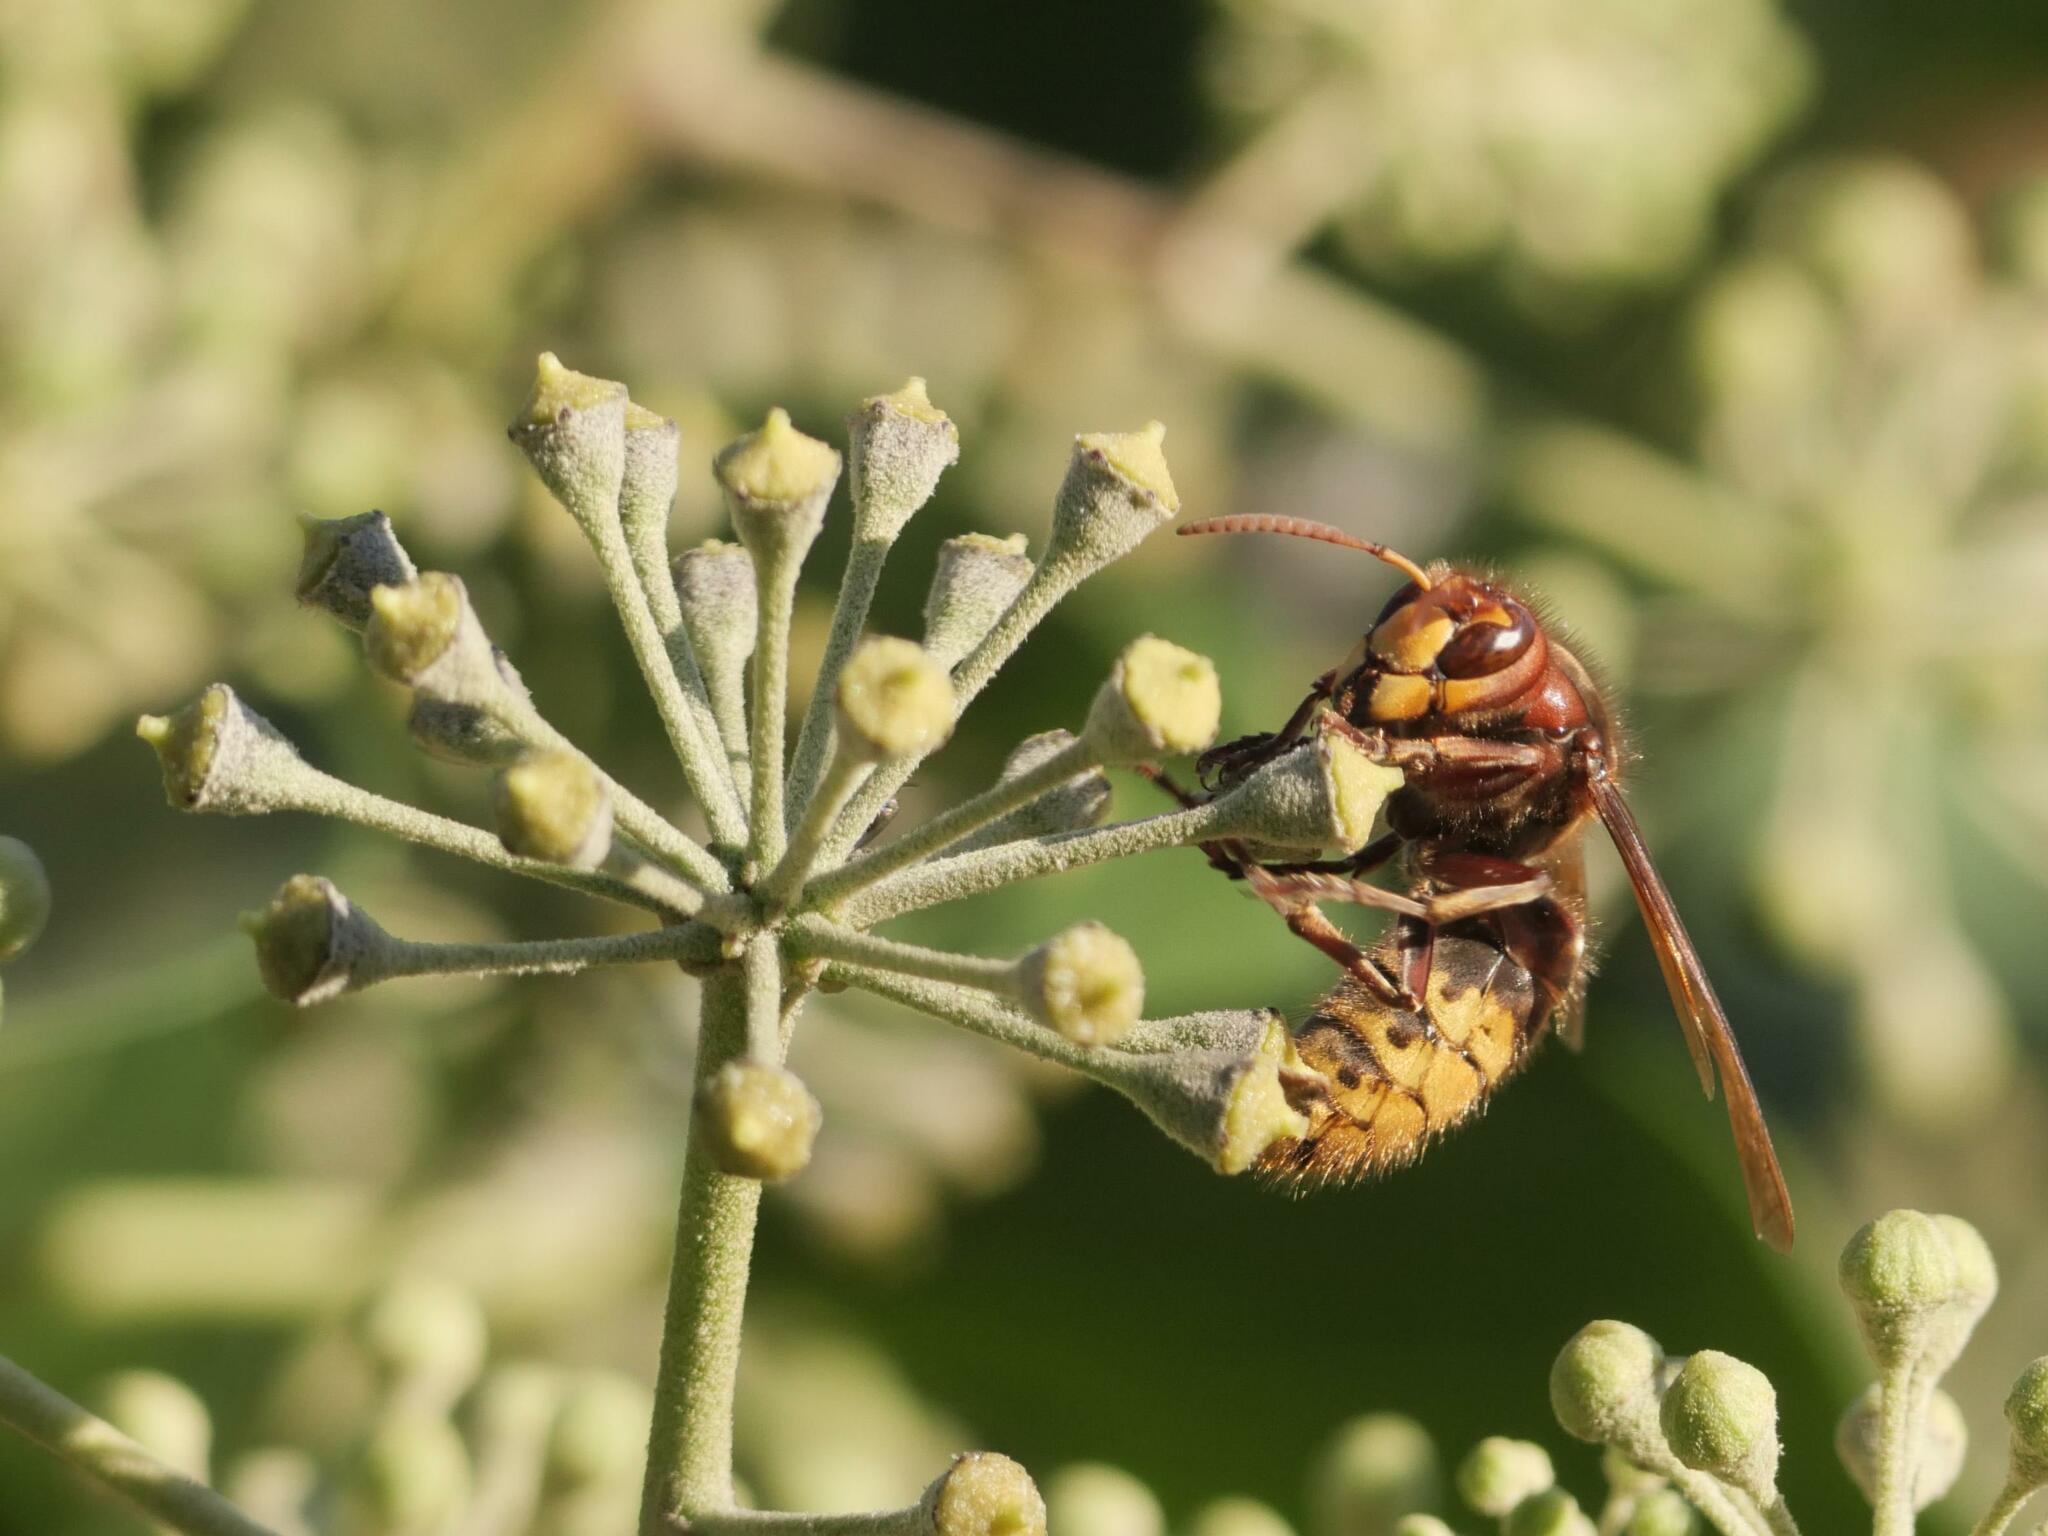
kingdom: Animalia
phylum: Arthropoda
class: Insecta
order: Hymenoptera
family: Vespidae
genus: Vespa
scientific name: Vespa crabro
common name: Hornet
